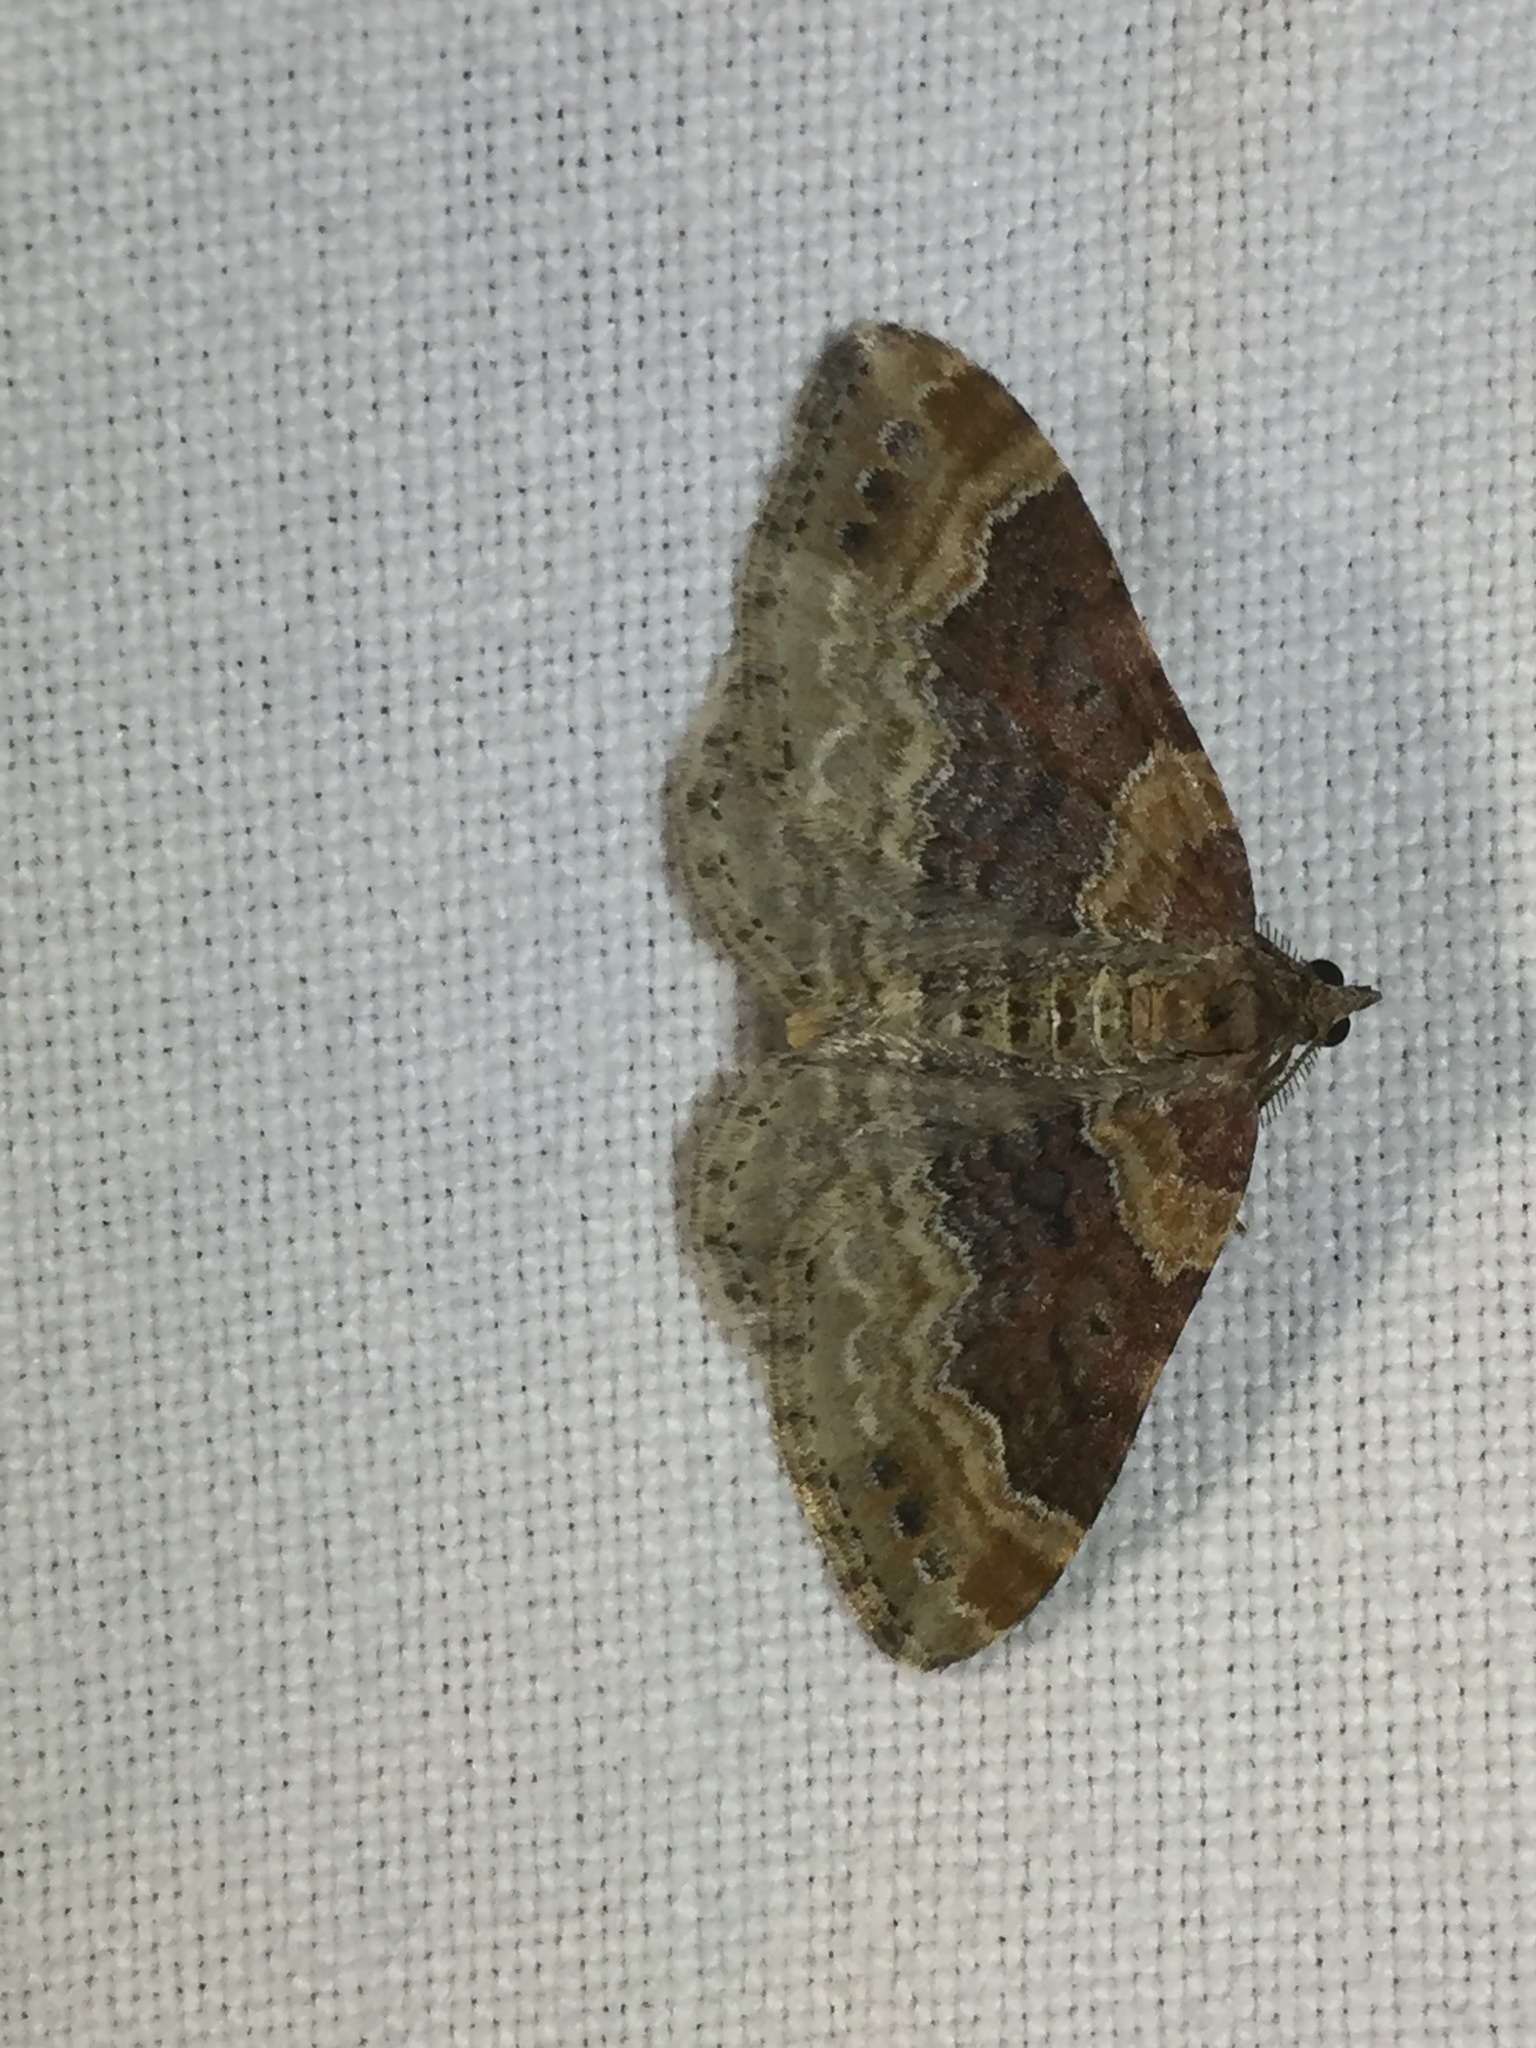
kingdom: Animalia
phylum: Arthropoda
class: Insecta
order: Lepidoptera
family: Geometridae
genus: Xanthorhoe
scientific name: Xanthorhoe ferrugata
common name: Dark-barred twin-spot carpet
